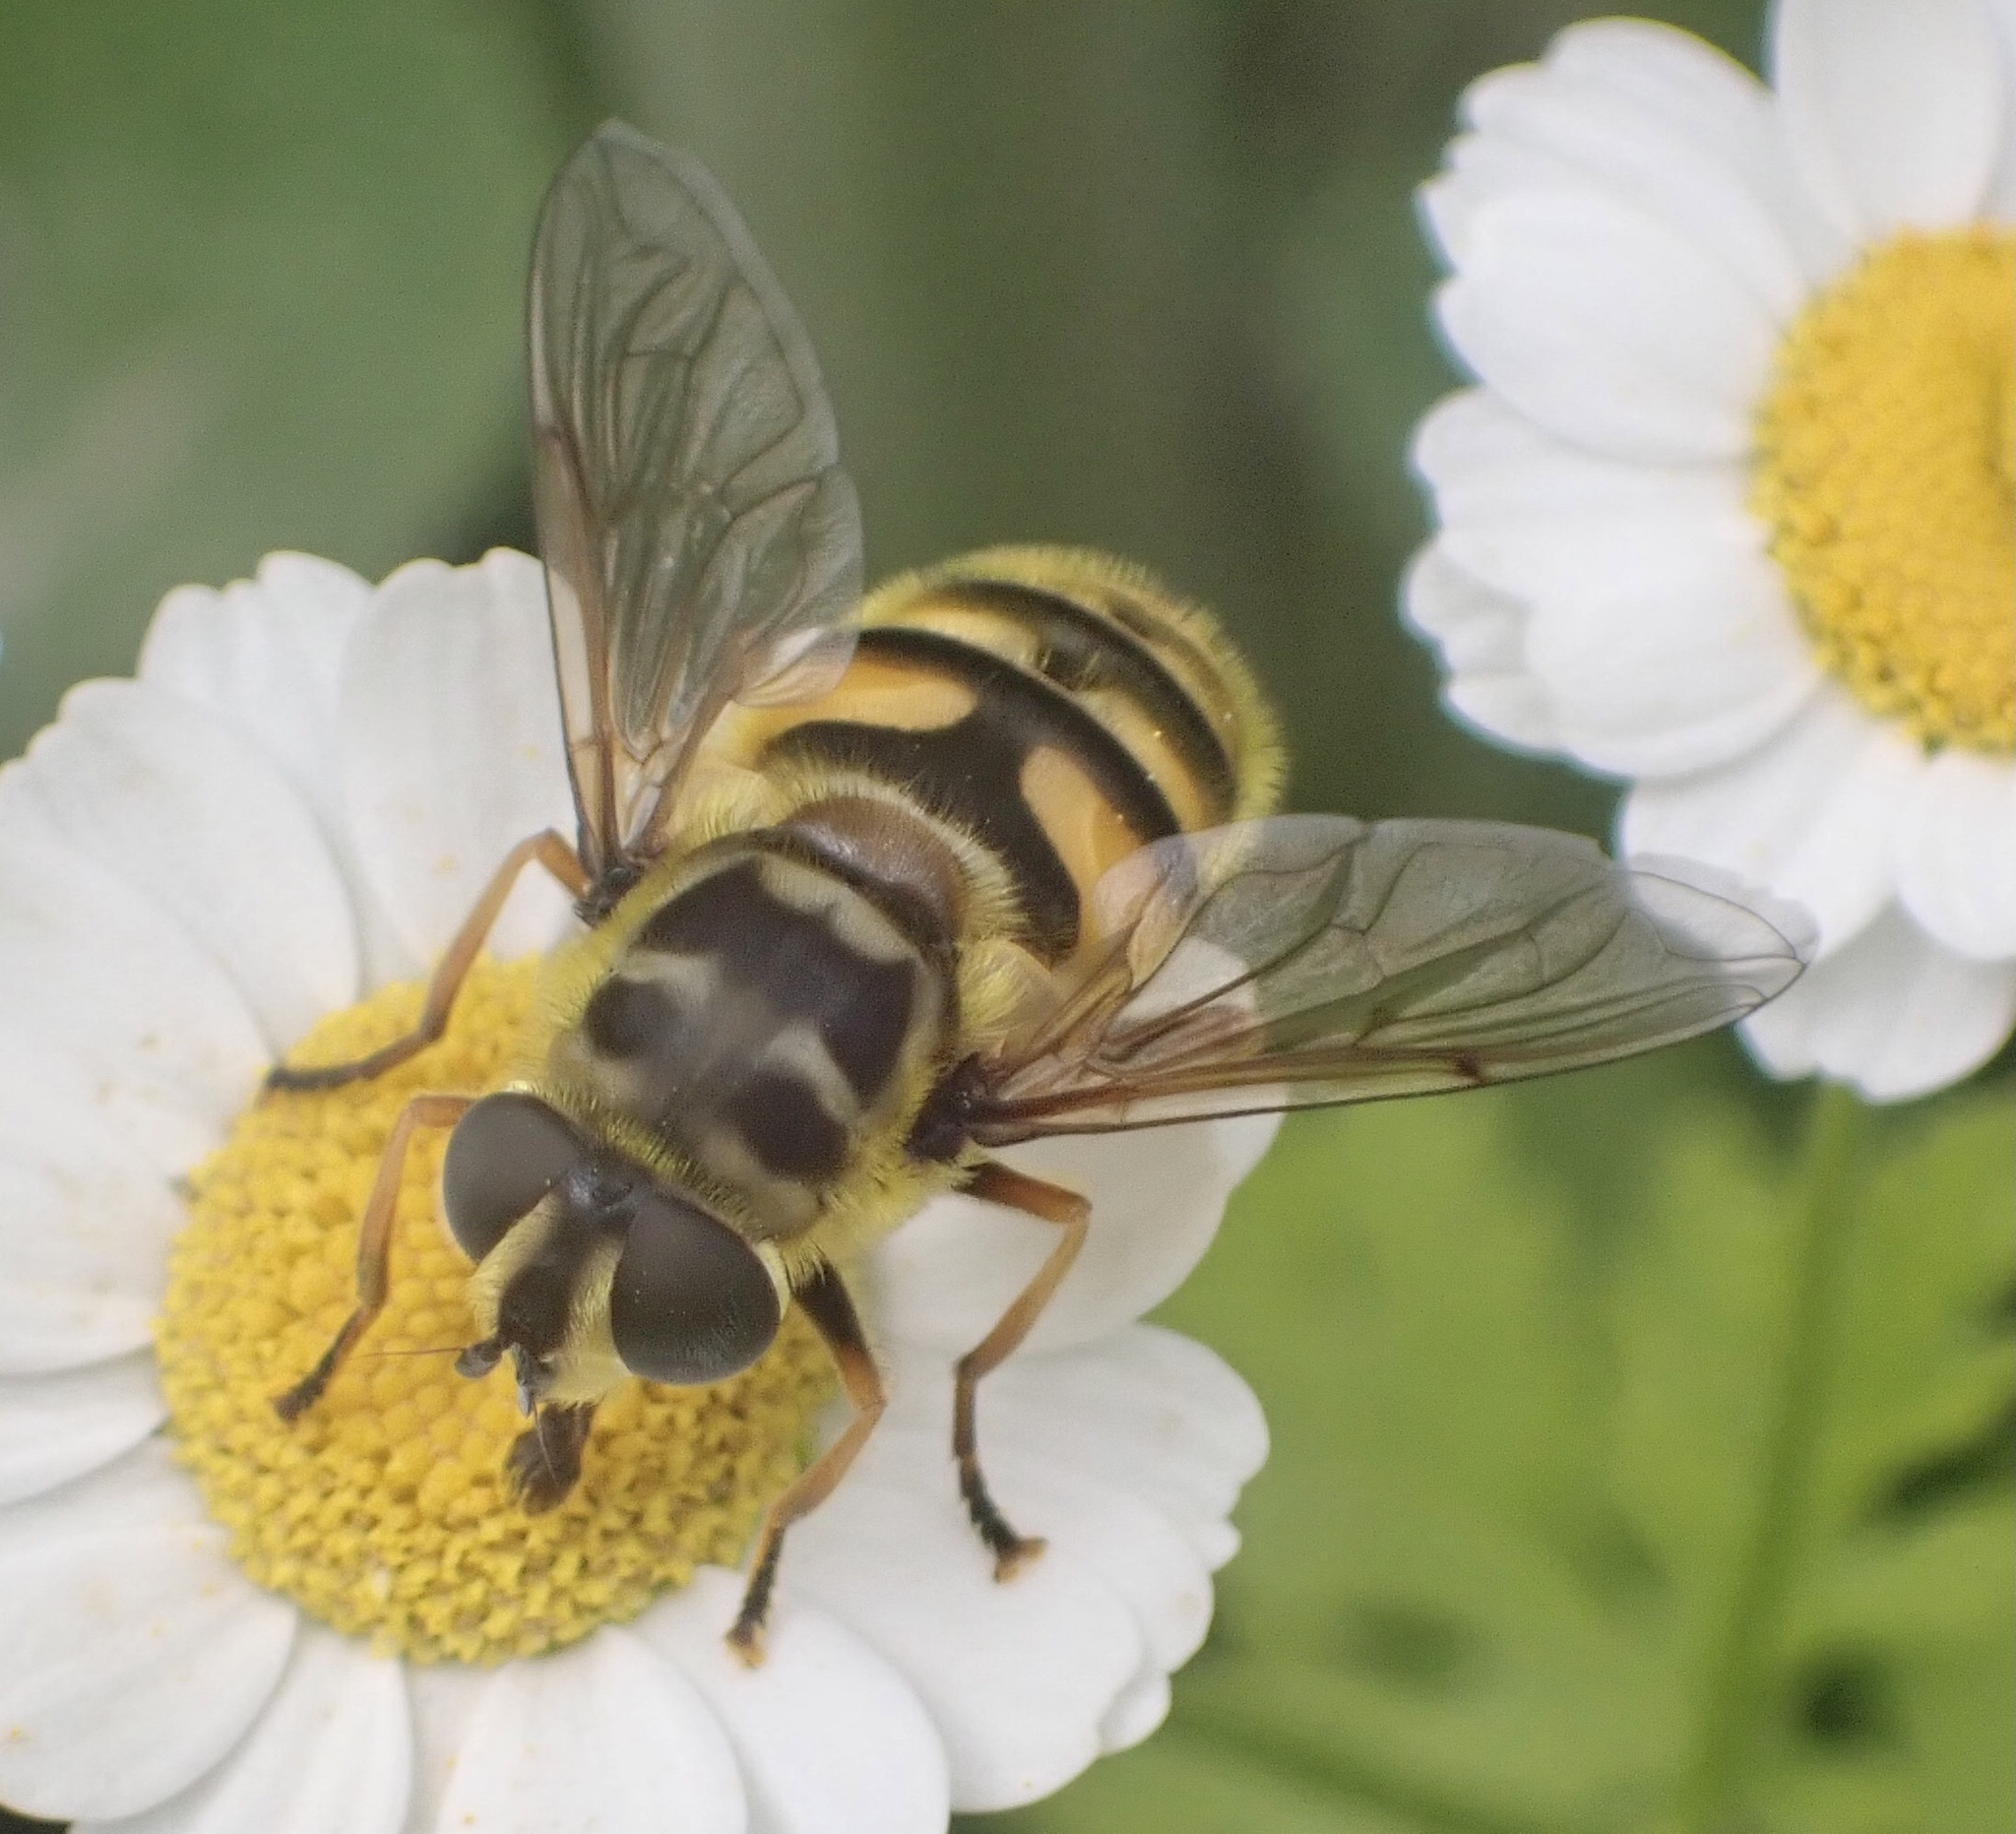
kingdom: Animalia
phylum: Arthropoda
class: Insecta
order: Diptera
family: Syrphidae
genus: Myathropa
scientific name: Myathropa florea
